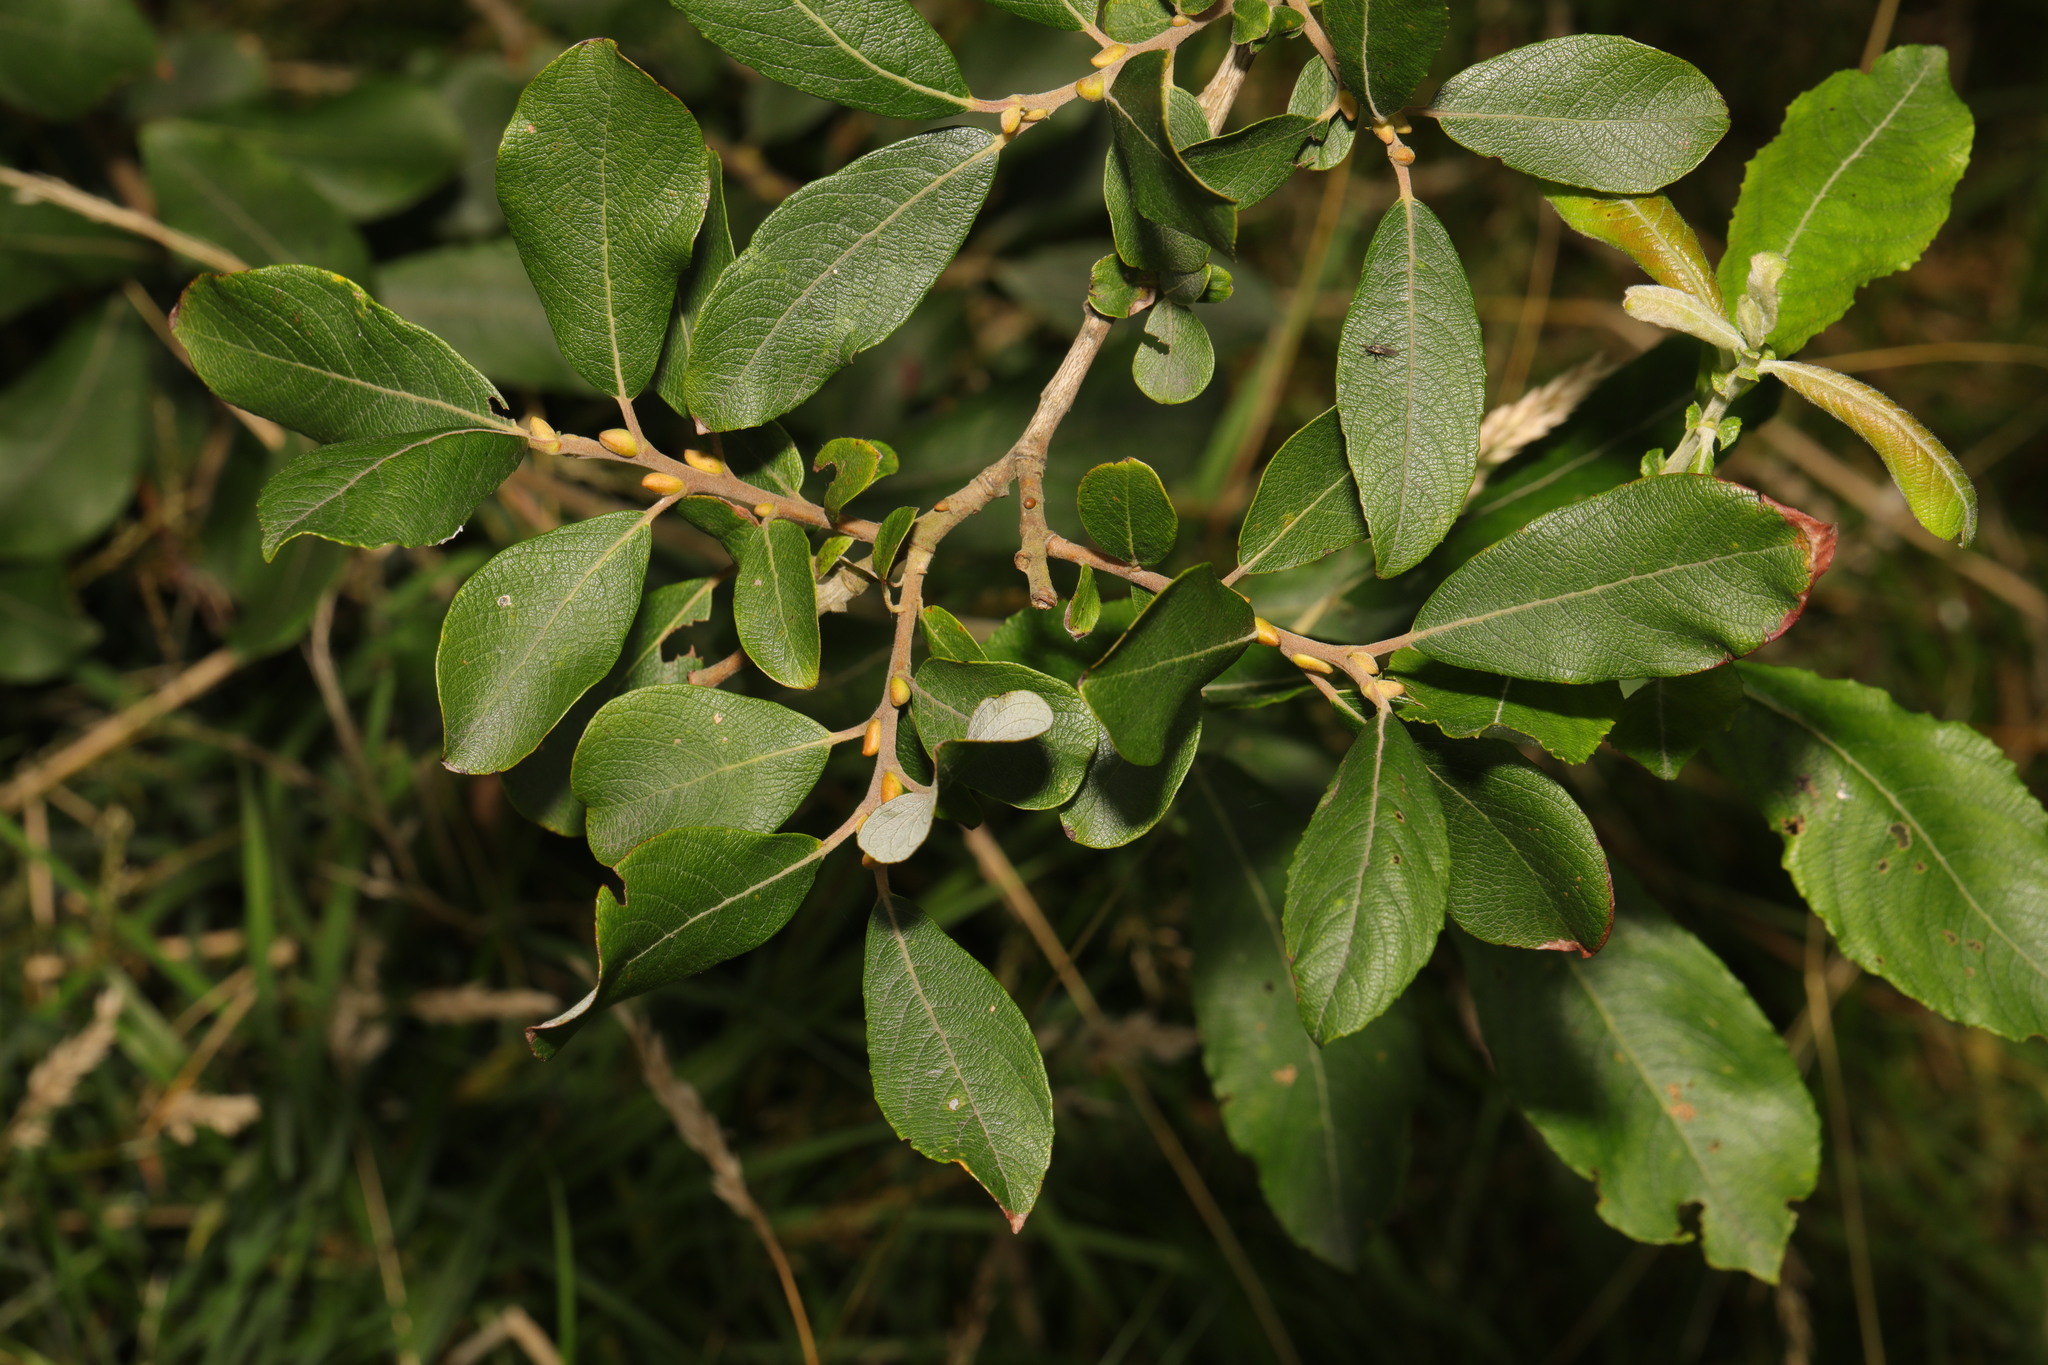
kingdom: Plantae
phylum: Tracheophyta
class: Magnoliopsida
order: Malpighiales
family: Salicaceae
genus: Salix
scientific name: Salix cinerea
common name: Common sallow
